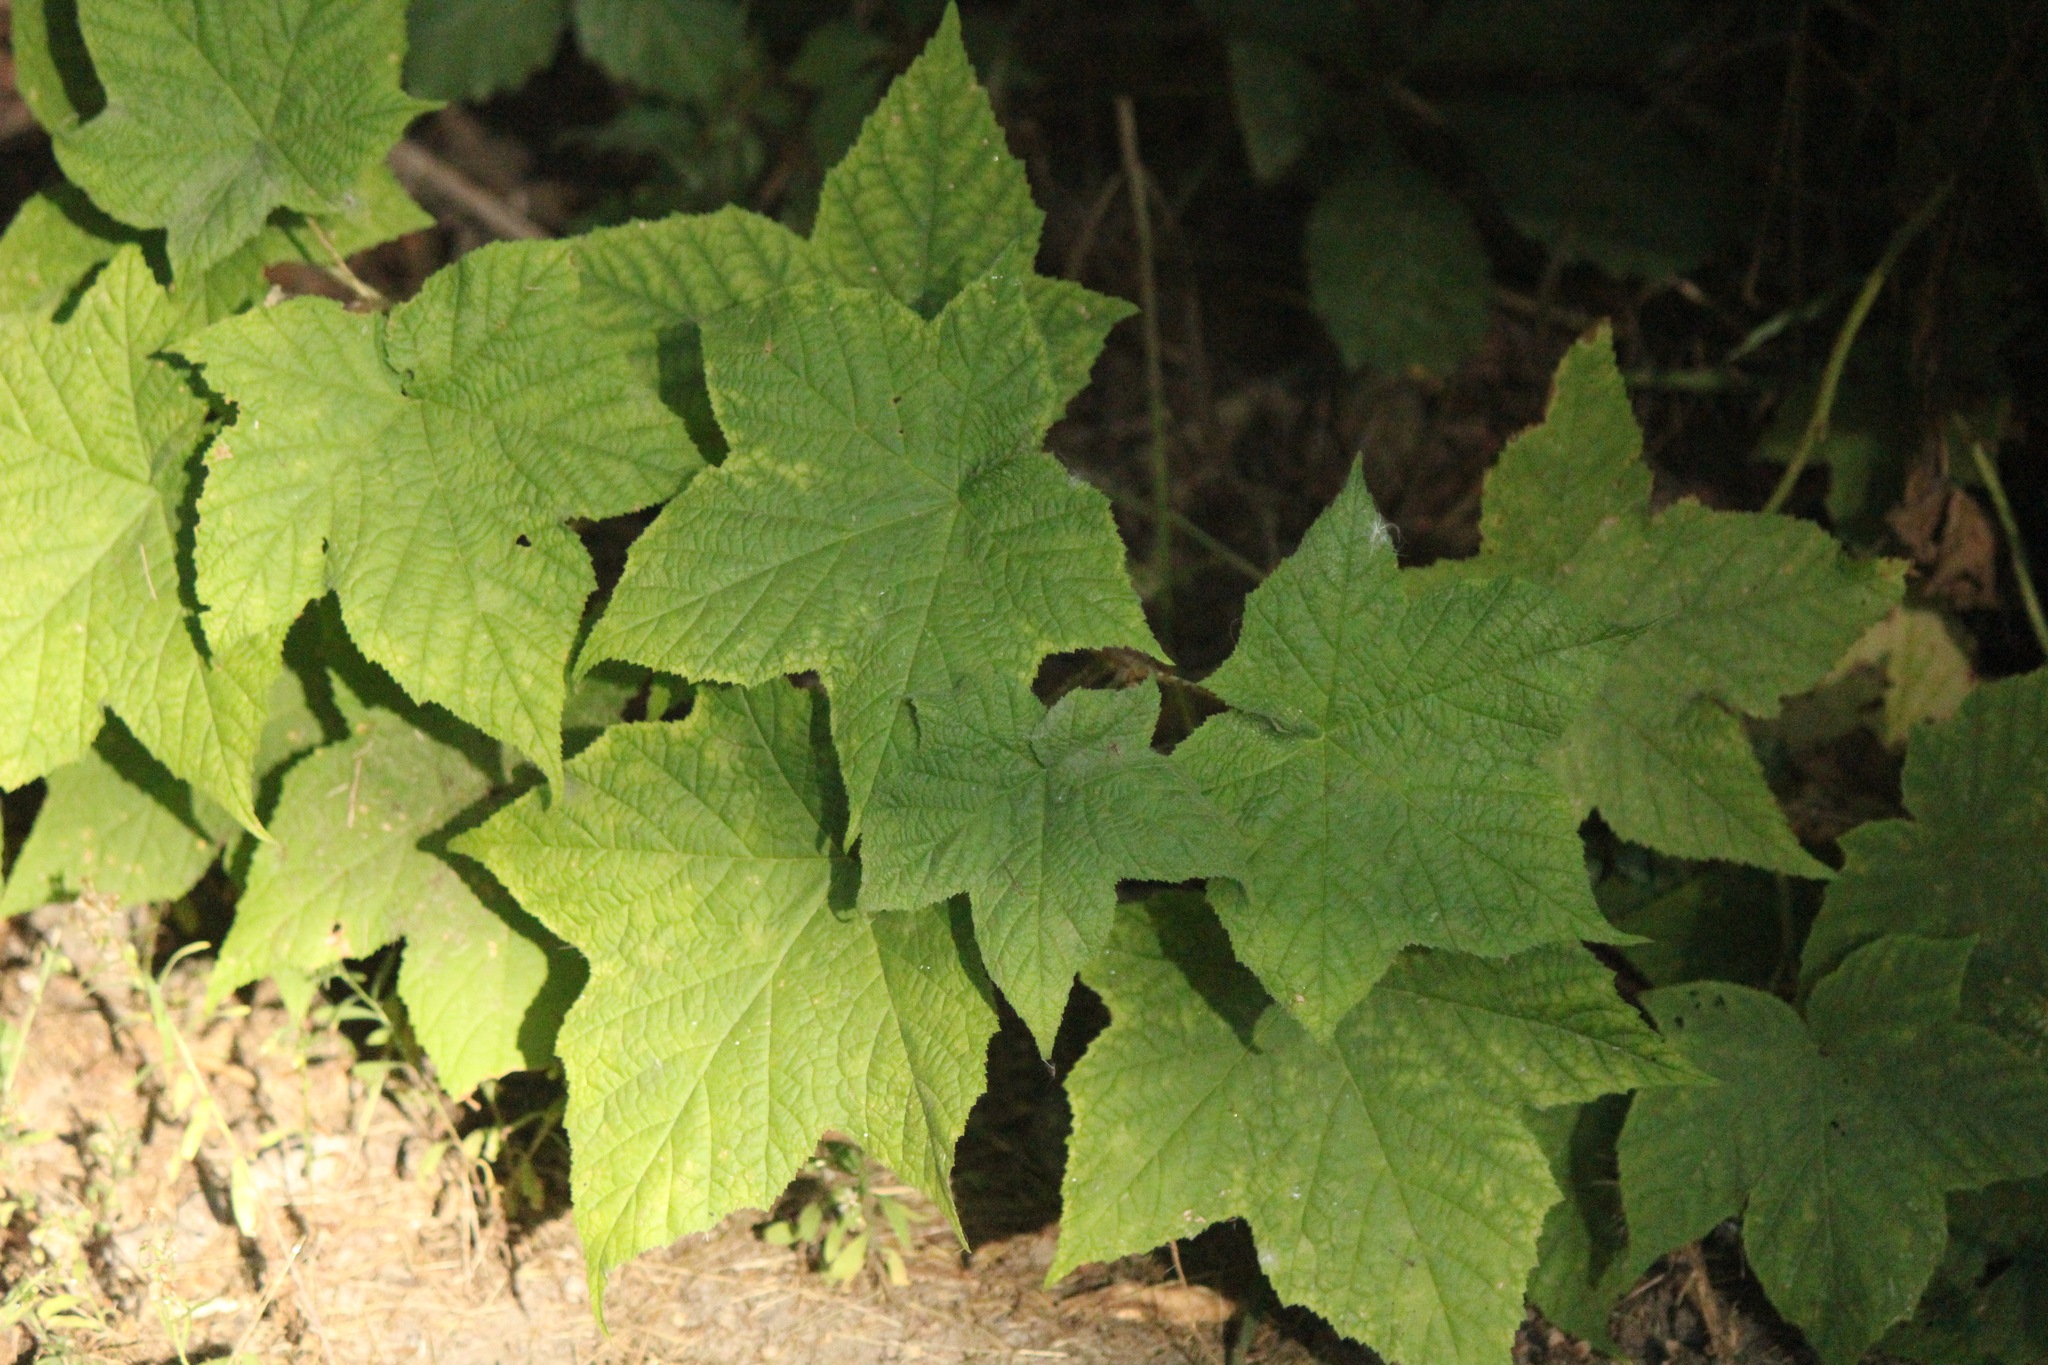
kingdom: Plantae
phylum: Tracheophyta
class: Magnoliopsida
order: Rosales
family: Rosaceae
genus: Rubus
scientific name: Rubus odoratus
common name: Purple-flowered raspberry
